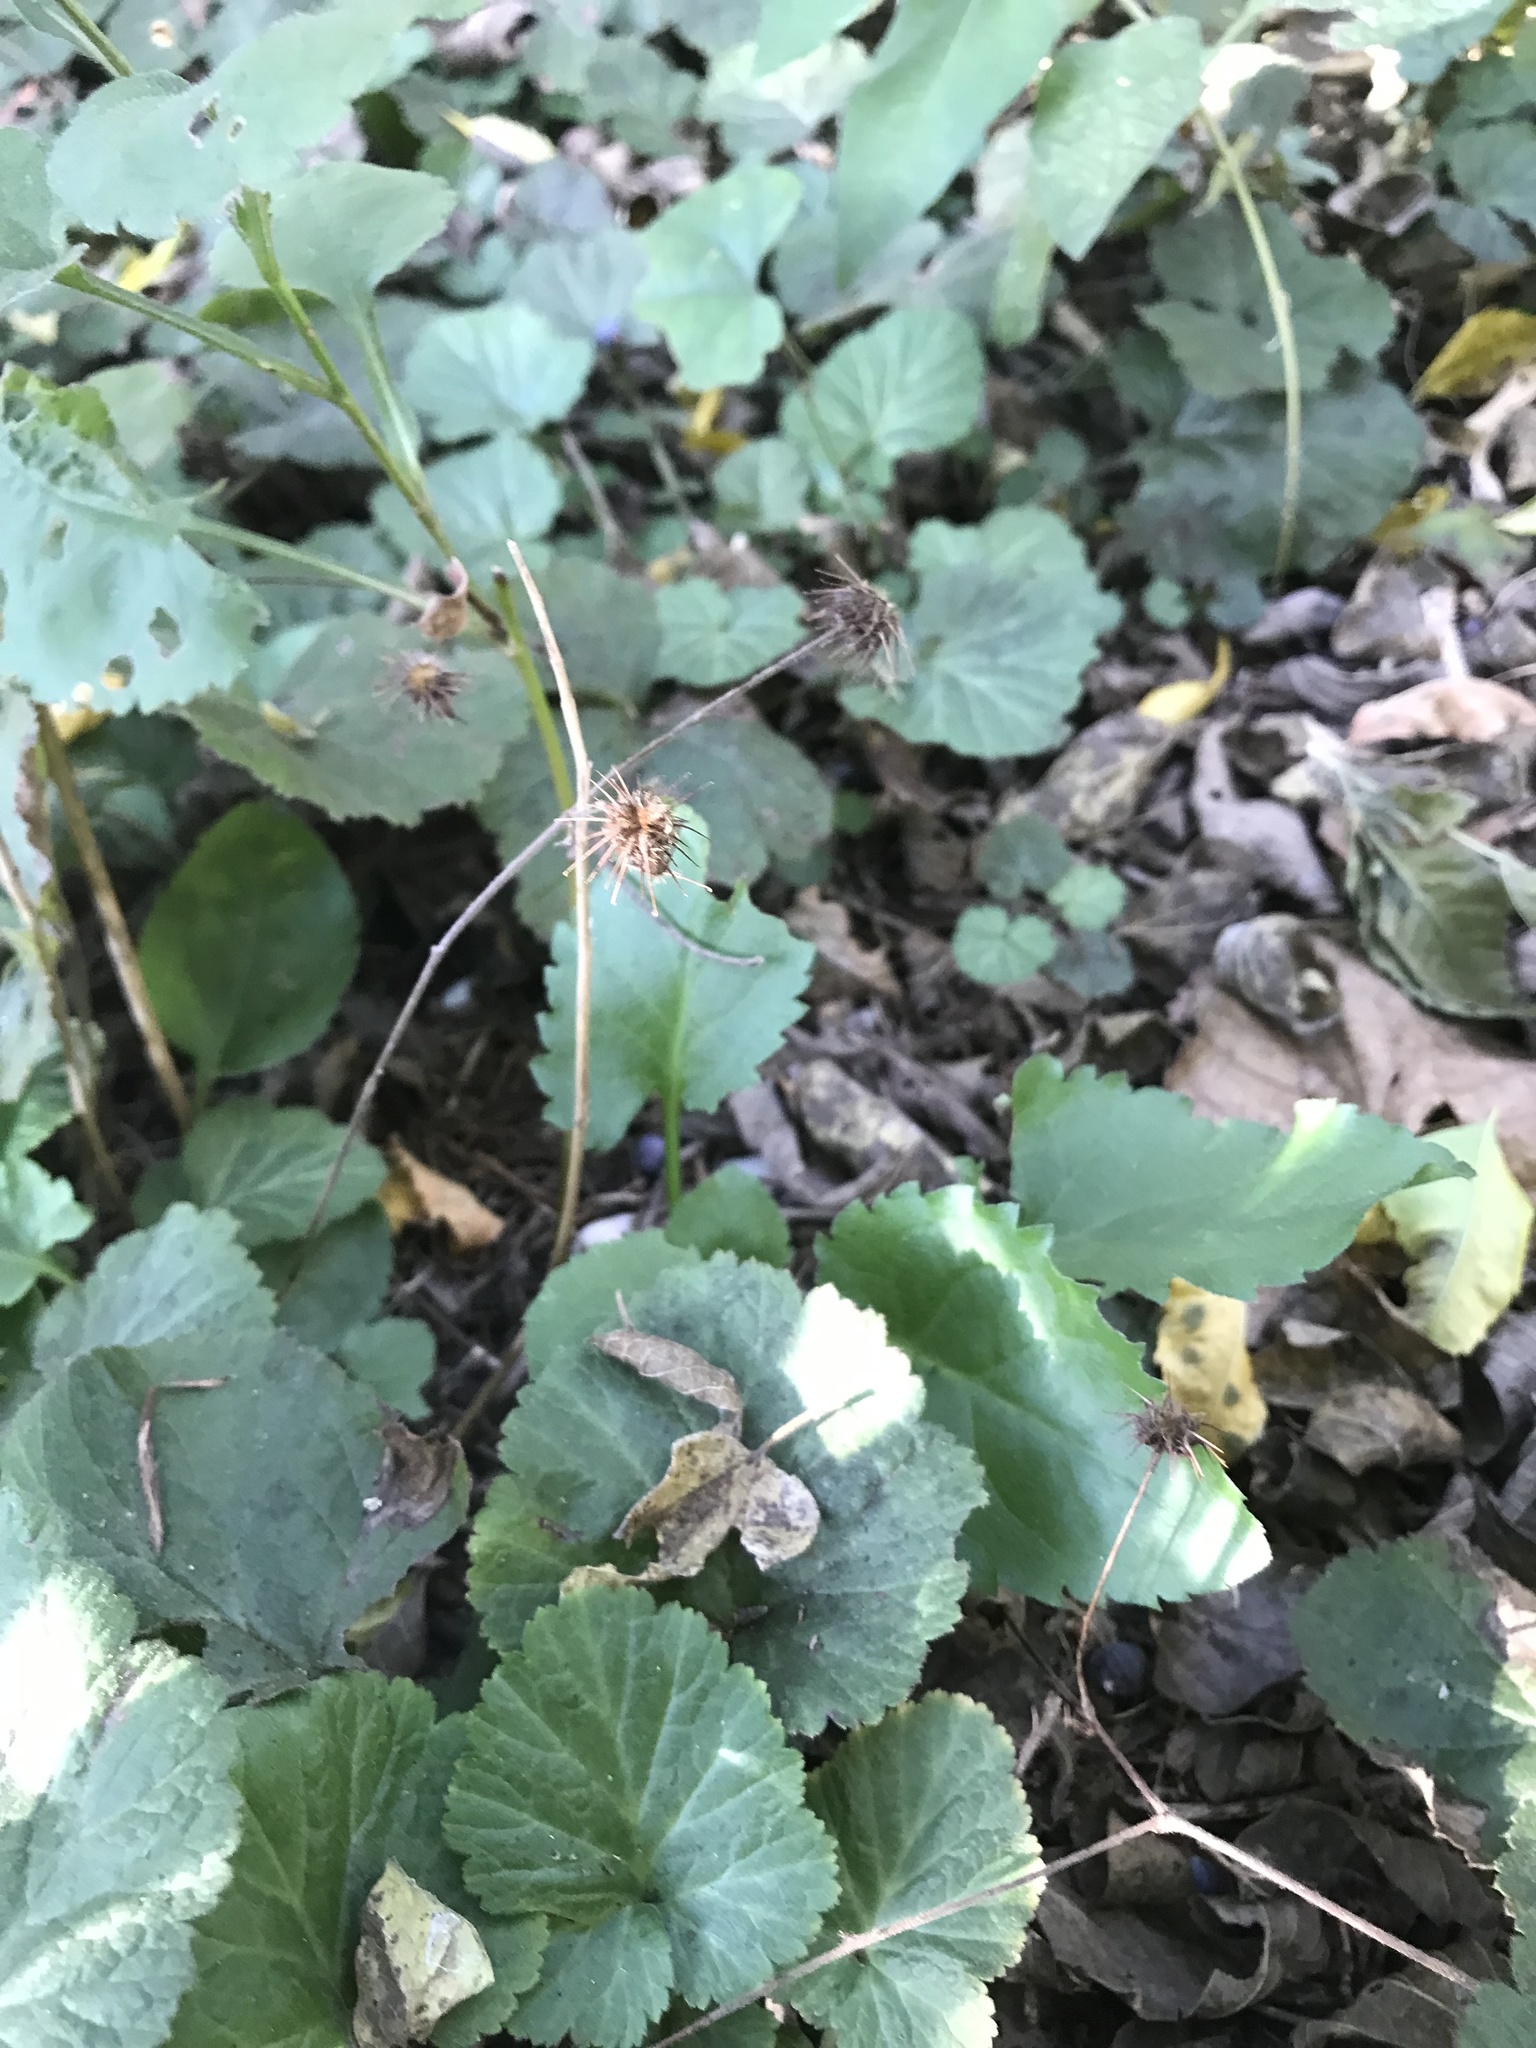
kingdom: Plantae
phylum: Tracheophyta
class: Magnoliopsida
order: Rosales
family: Rosaceae
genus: Geum
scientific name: Geum canadense
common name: White avens
